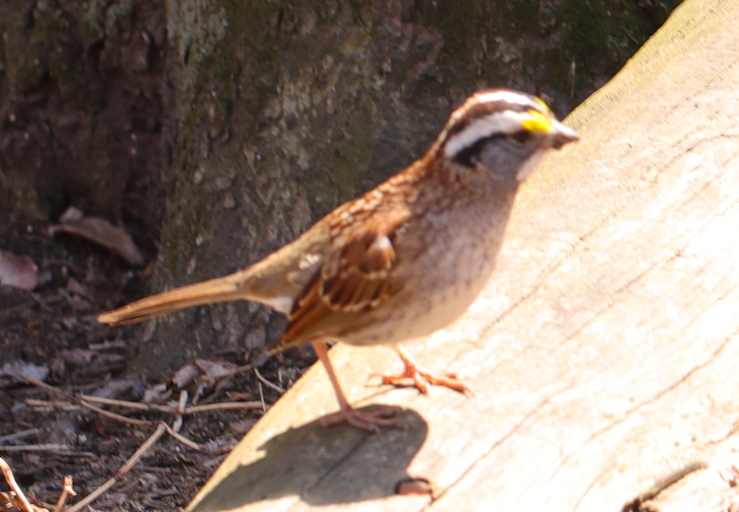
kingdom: Animalia
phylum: Chordata
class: Aves
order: Passeriformes
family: Passerellidae
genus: Zonotrichia
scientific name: Zonotrichia albicollis
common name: White-throated sparrow
